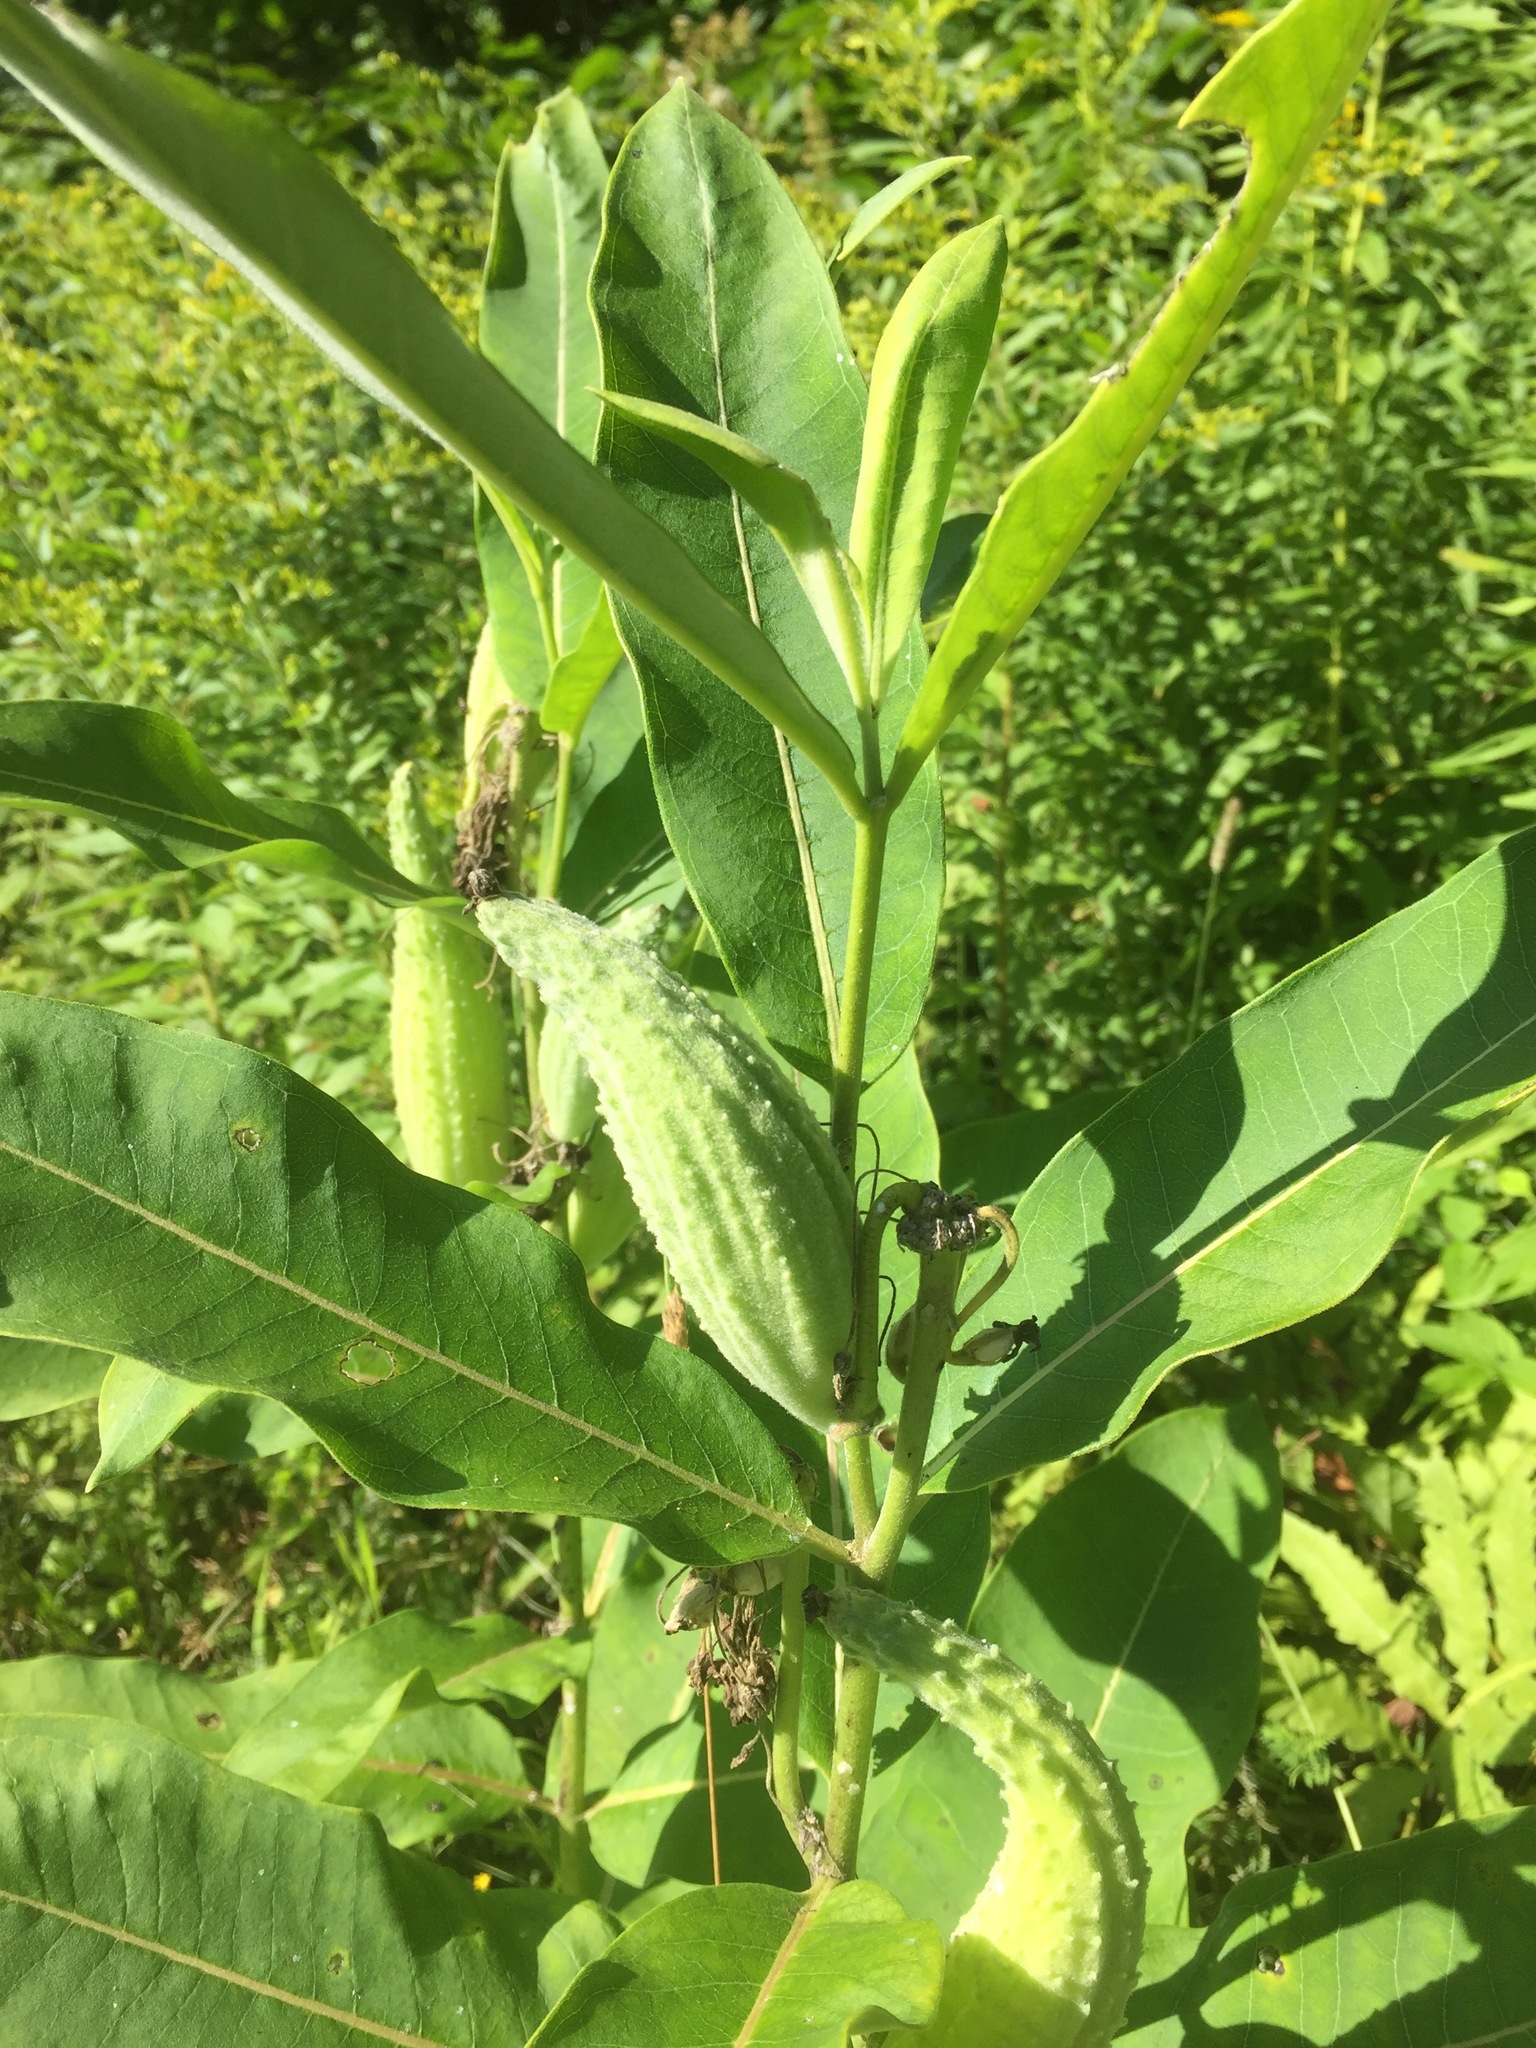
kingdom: Plantae
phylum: Tracheophyta
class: Magnoliopsida
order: Gentianales
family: Apocynaceae
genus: Asclepias
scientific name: Asclepias syriaca
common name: Common milkweed
